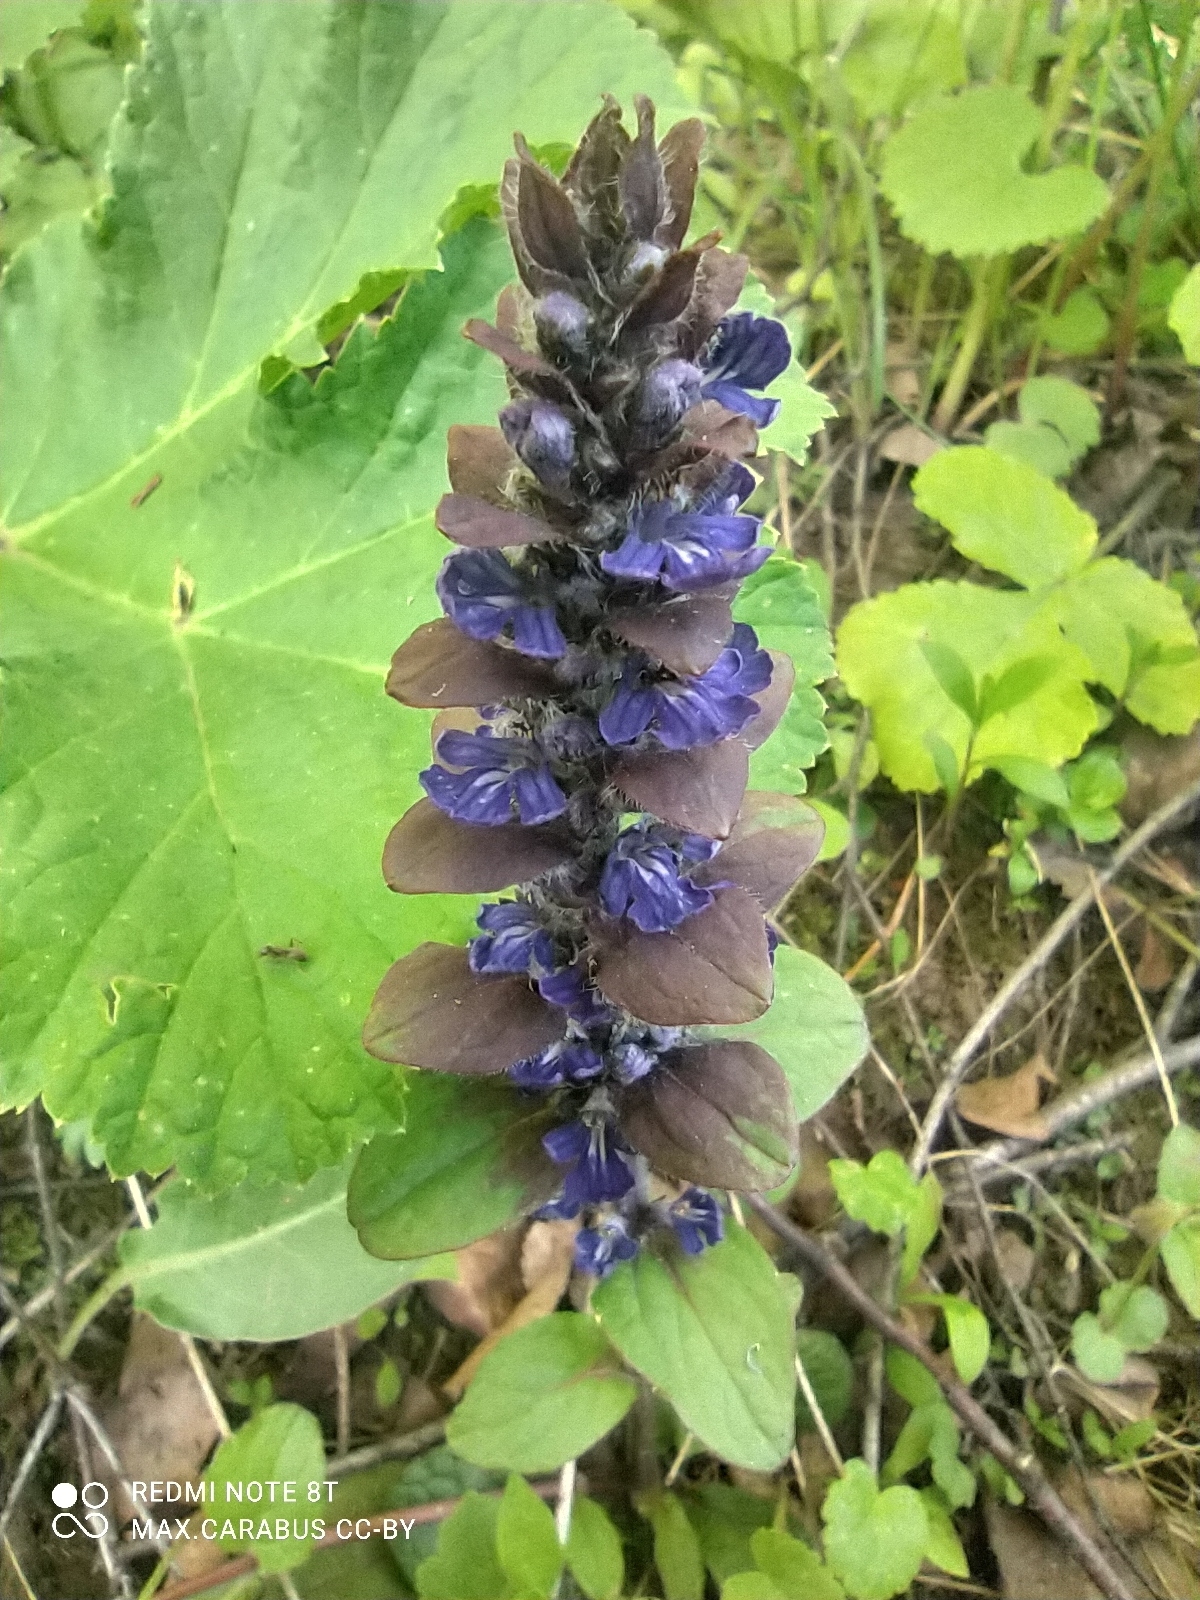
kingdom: Plantae
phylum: Tracheophyta
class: Magnoliopsida
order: Lamiales
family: Lamiaceae
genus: Ajuga
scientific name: Ajuga reptans
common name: Bugle
